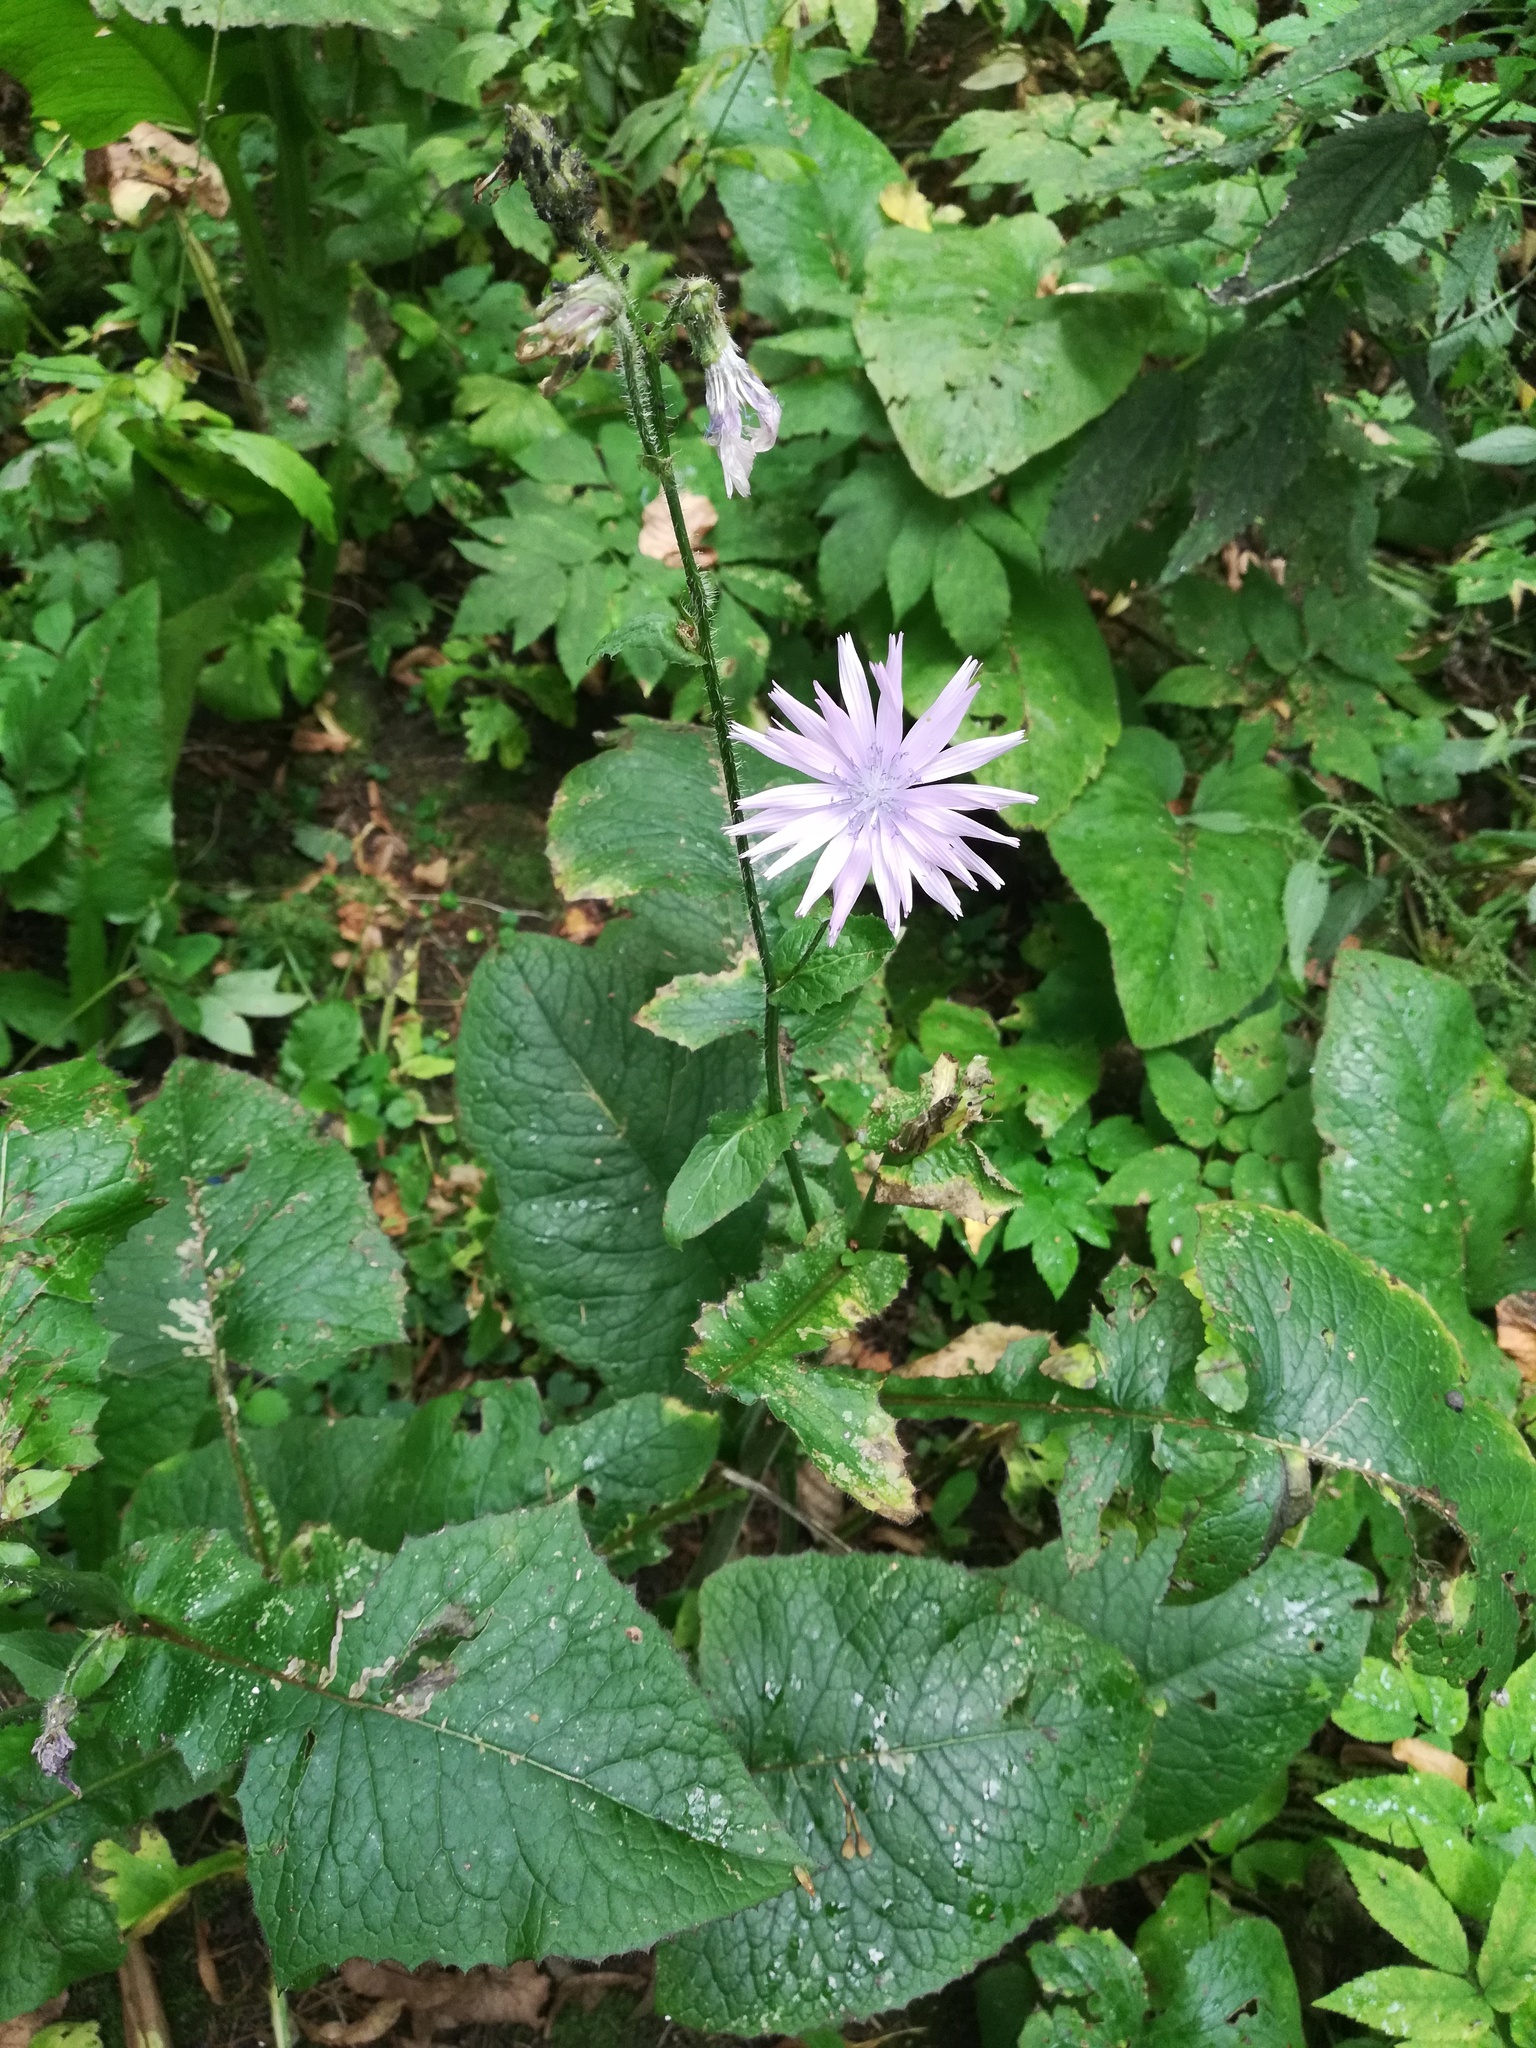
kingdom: Plantae
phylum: Tracheophyta
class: Magnoliopsida
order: Asterales
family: Asteraceae
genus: Lactuca
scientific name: Lactuca macrophylla
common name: Common blue-sow-thistle
